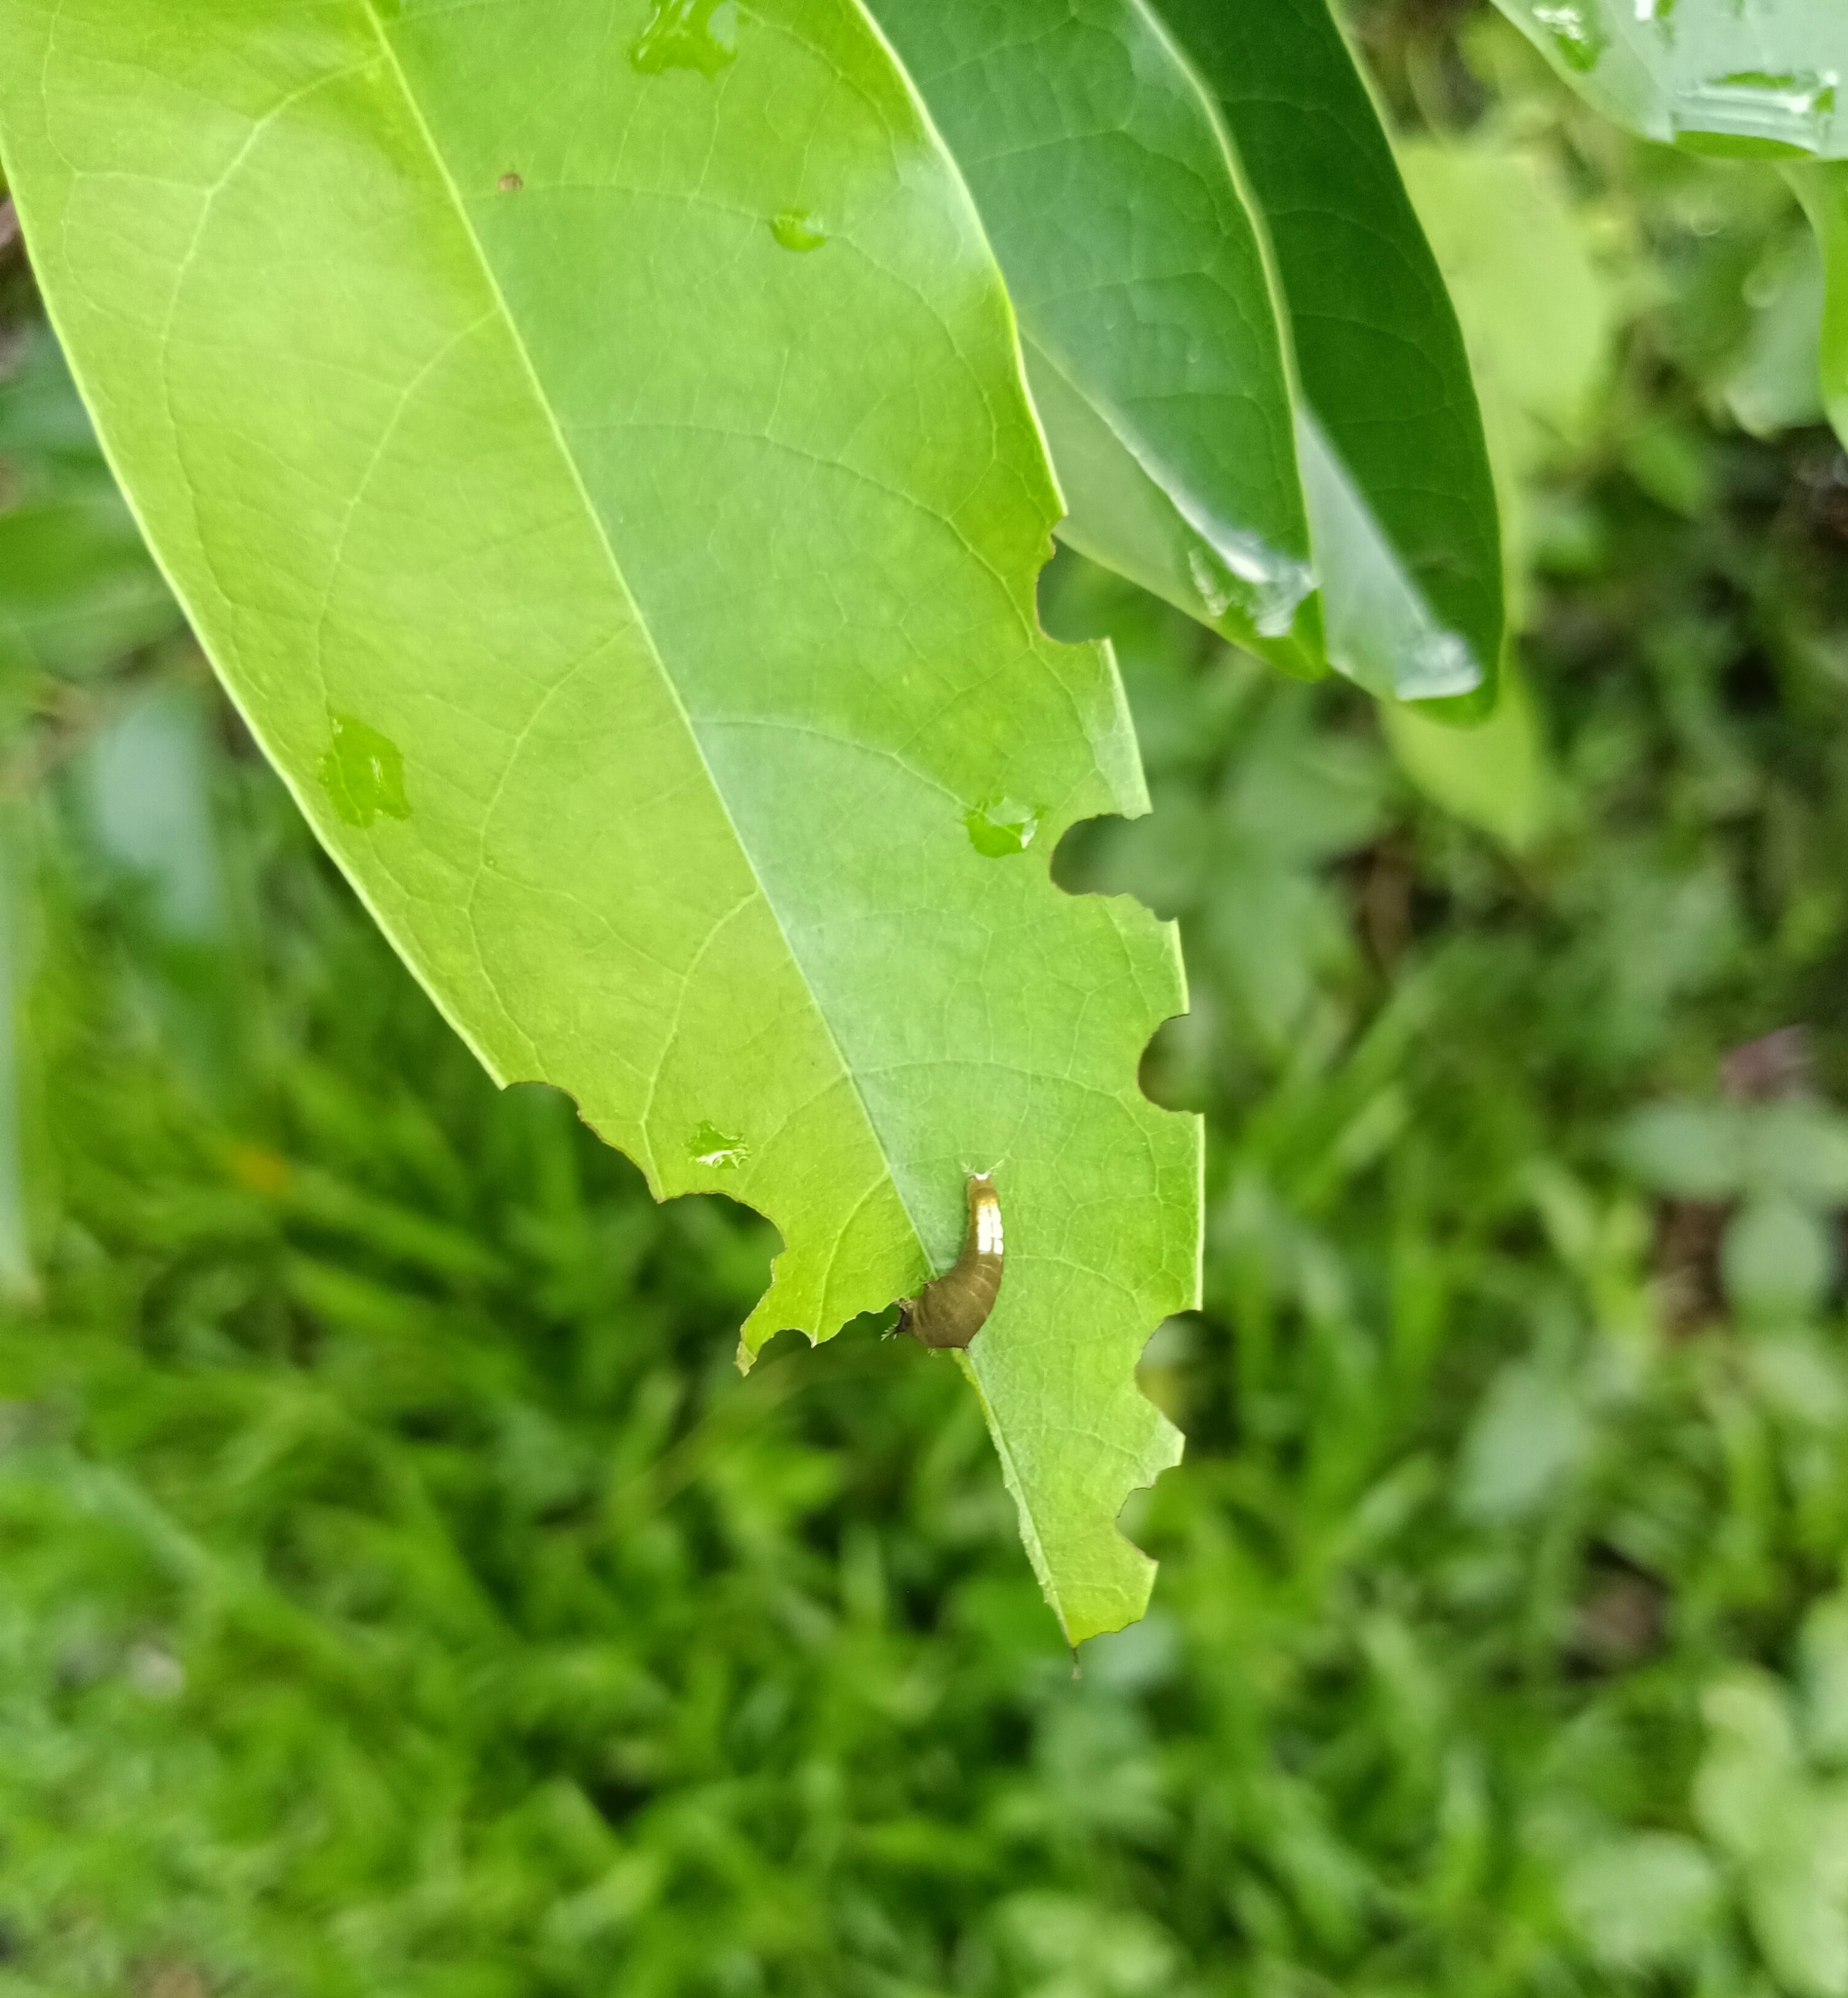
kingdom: Animalia
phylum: Arthropoda
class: Insecta
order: Lepidoptera
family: Papilionidae
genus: Graphium
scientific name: Graphium agamemnon
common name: Tailed jay
